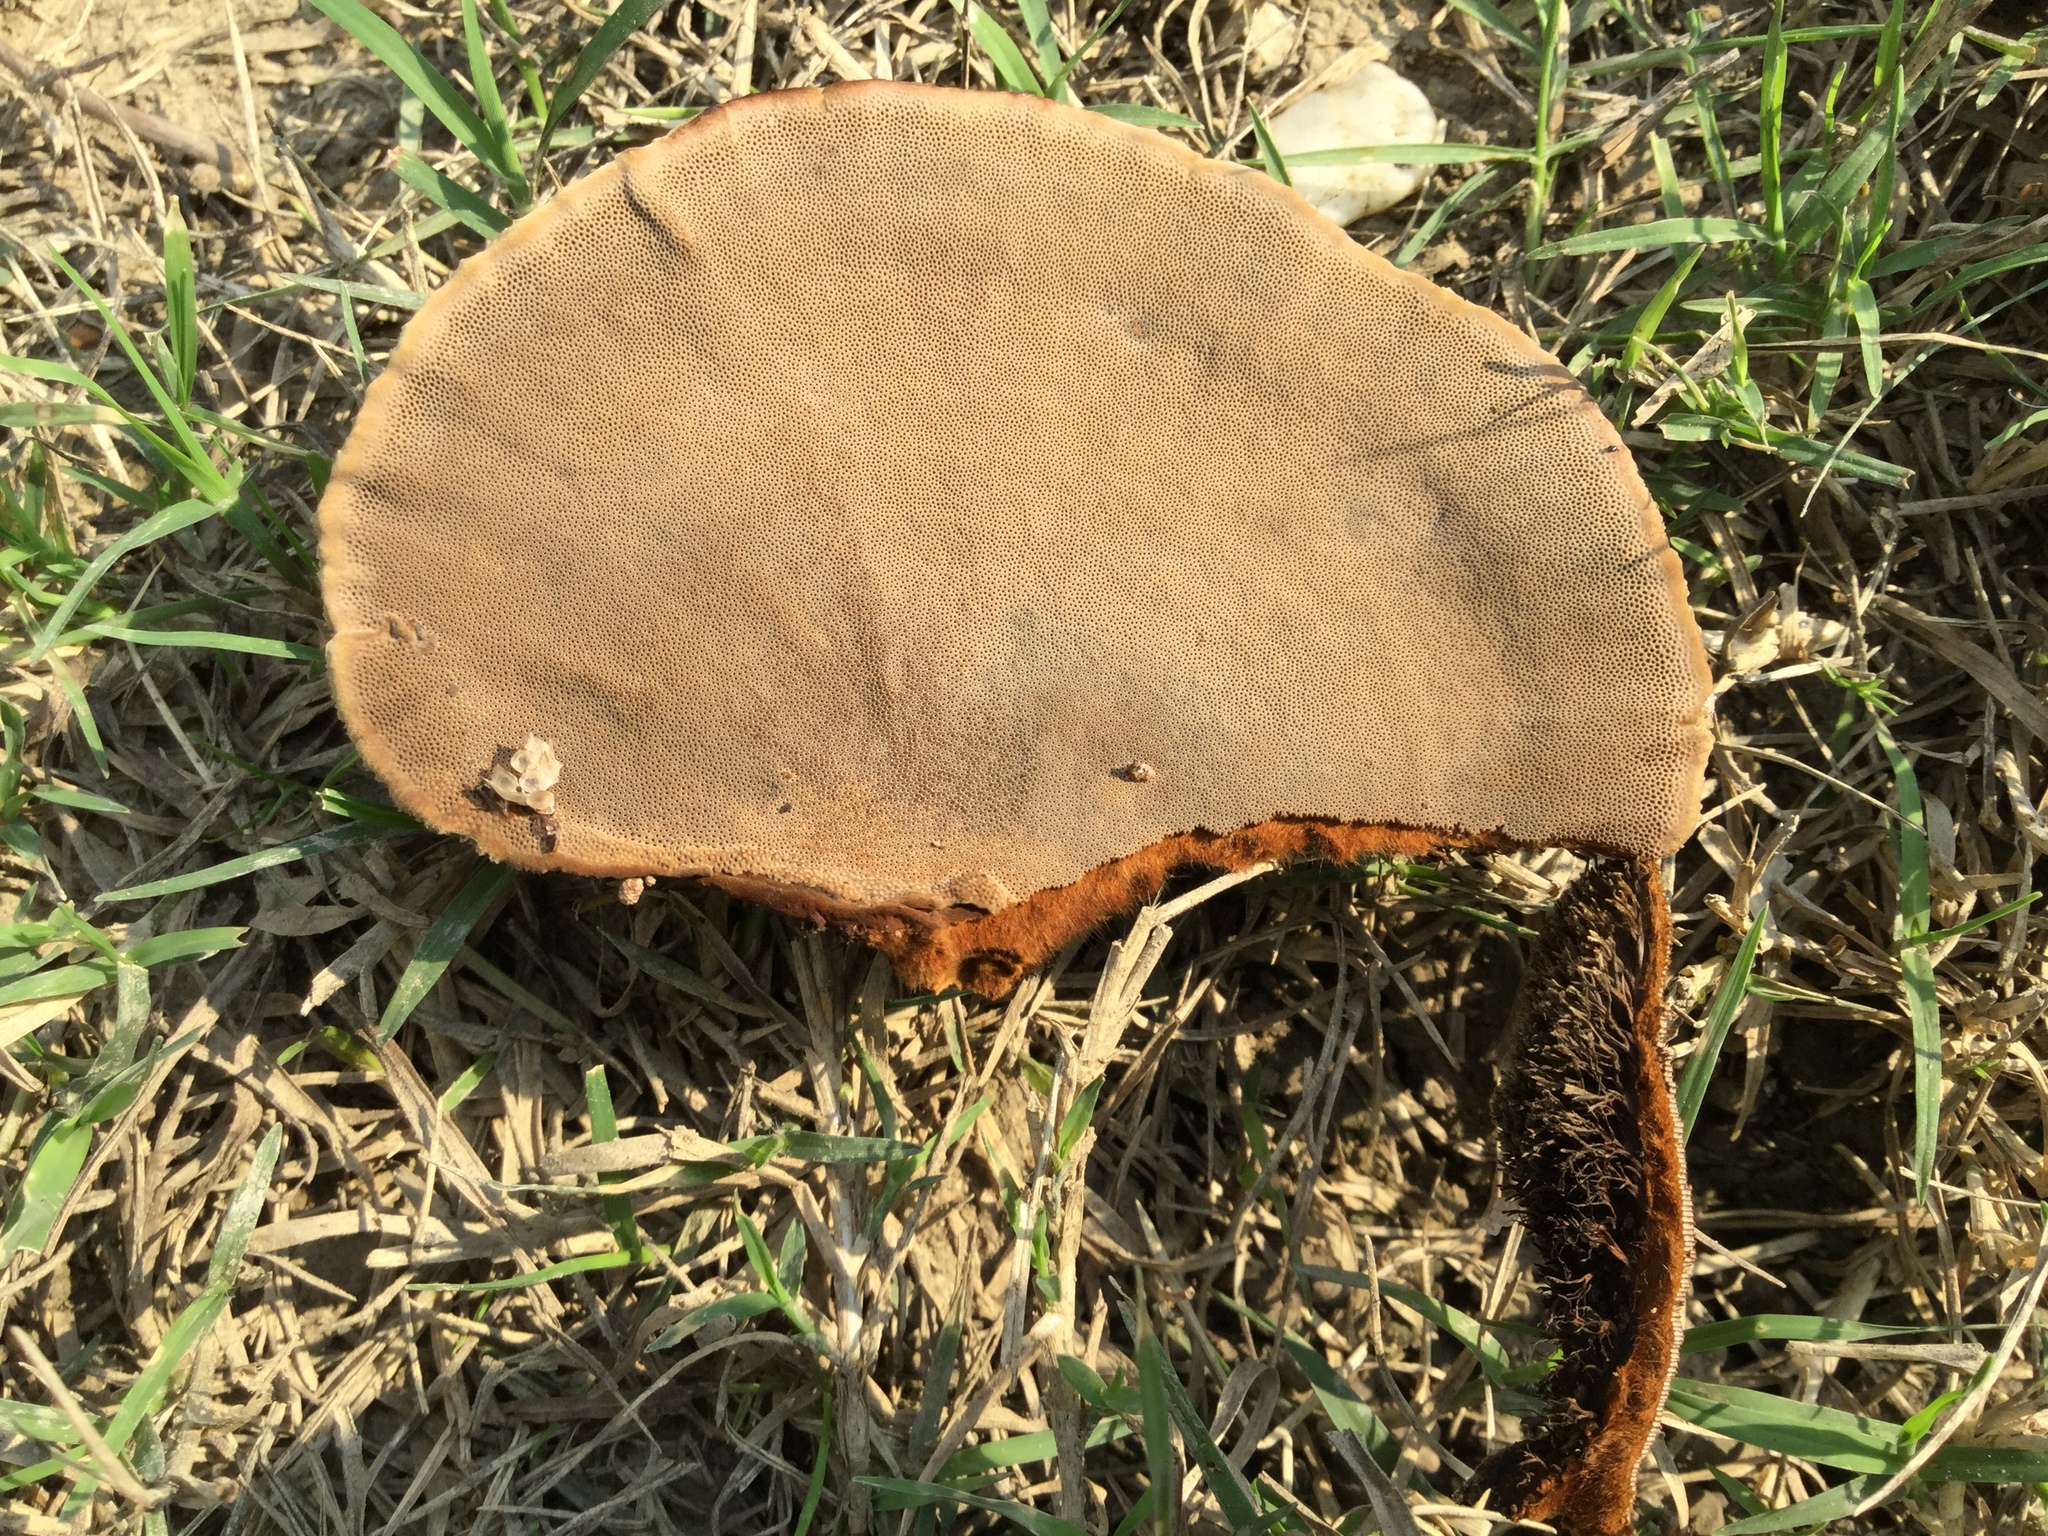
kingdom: Fungi
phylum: Basidiomycota
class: Agaricomycetes
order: Polyporales
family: Cerrenaceae
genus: Cerrena
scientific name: Cerrena hydnoides
